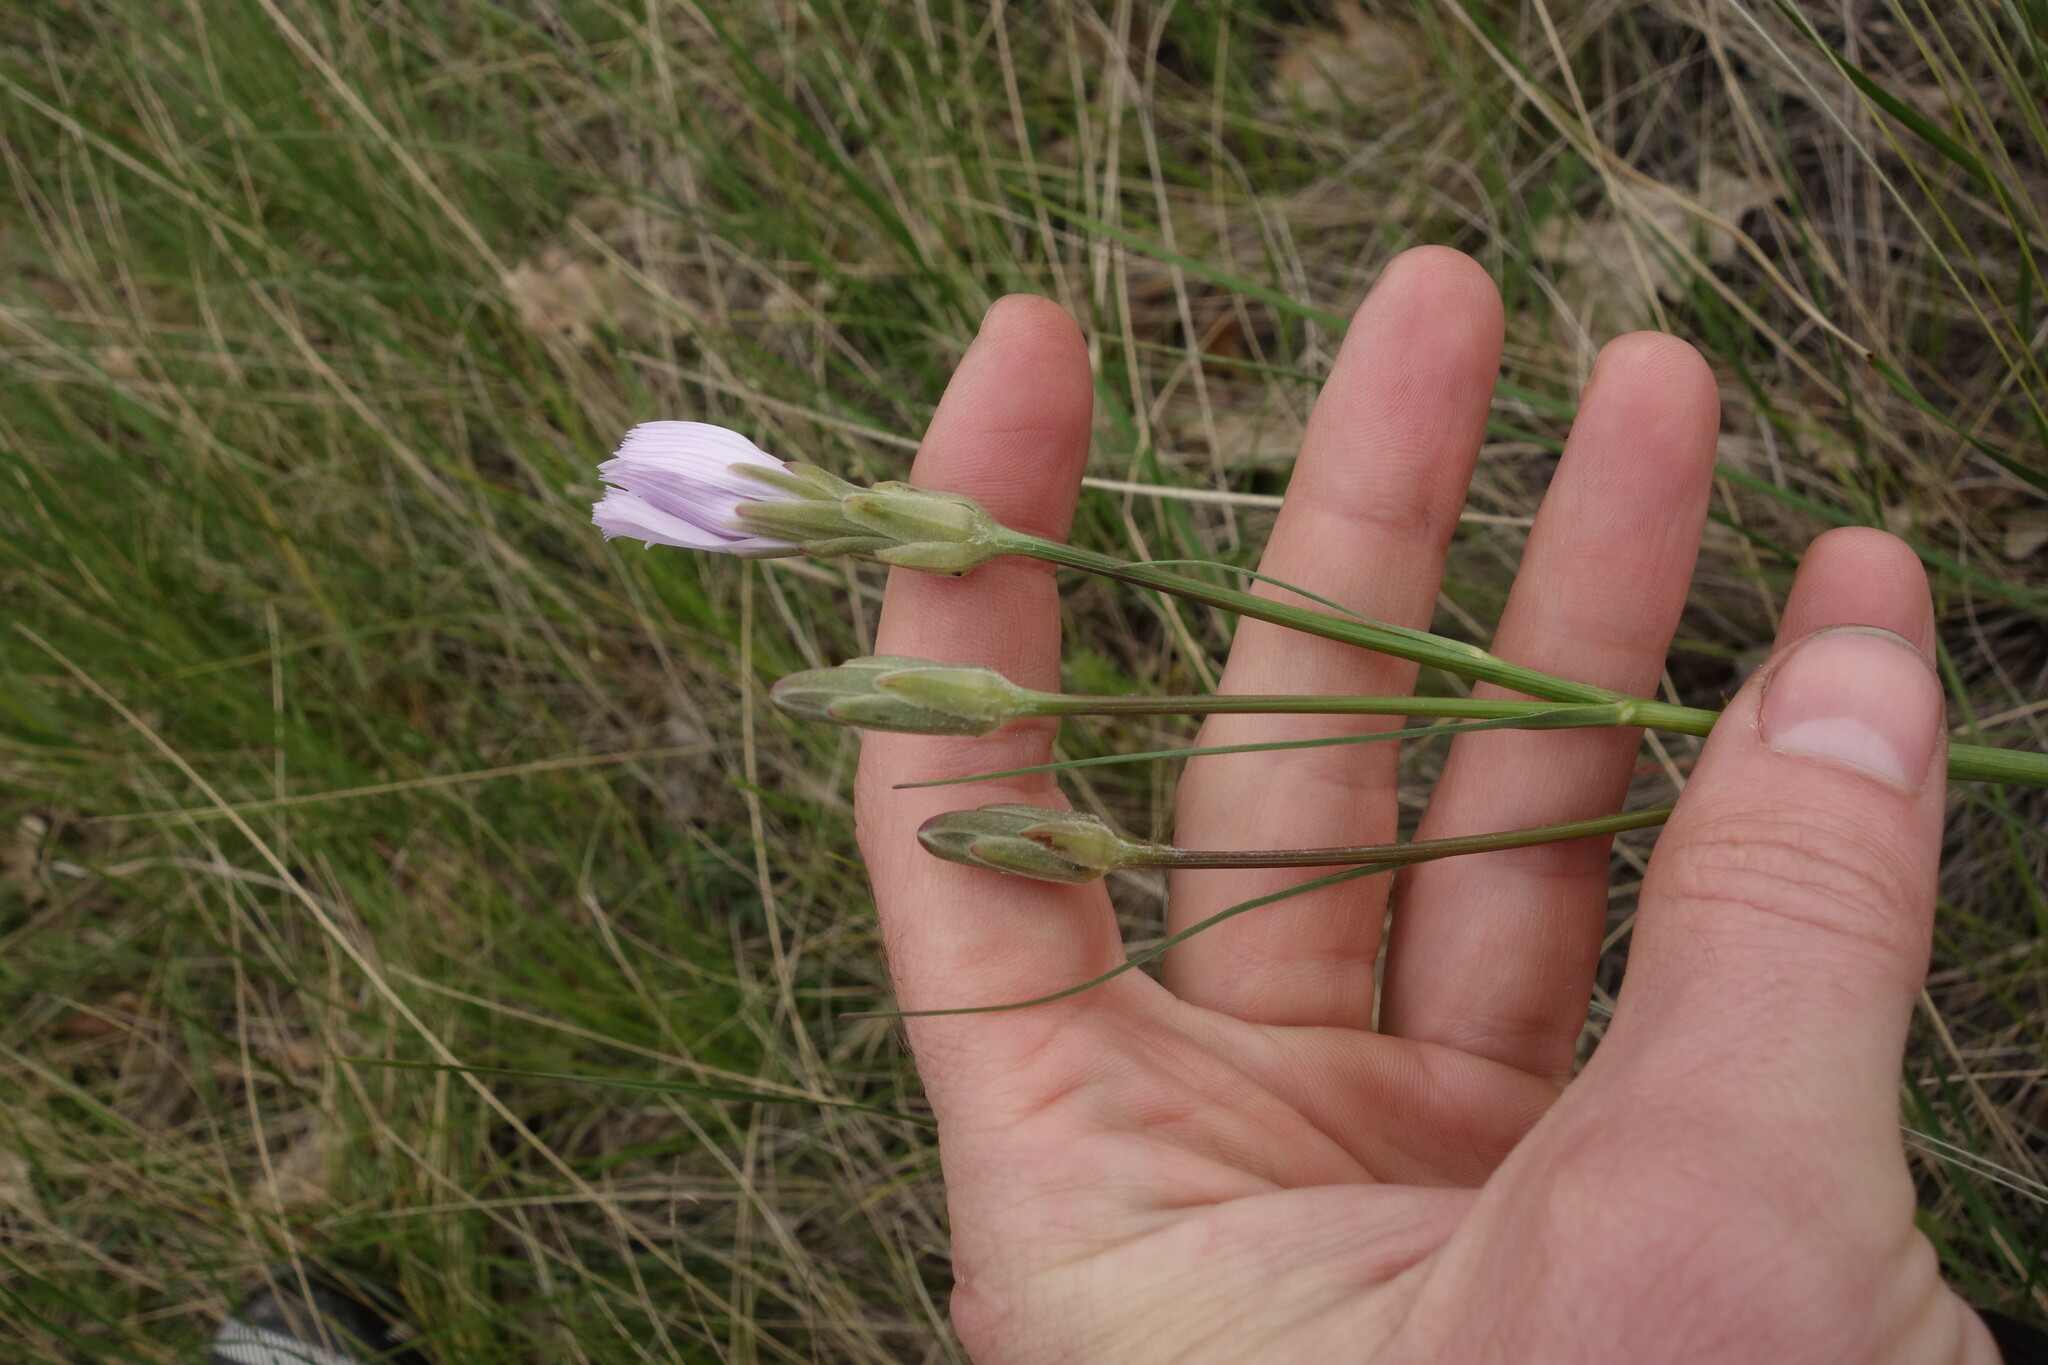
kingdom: Plantae
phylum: Tracheophyta
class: Magnoliopsida
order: Asterales
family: Asteraceae
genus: Scorzonera
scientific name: Scorzonera purpurea
